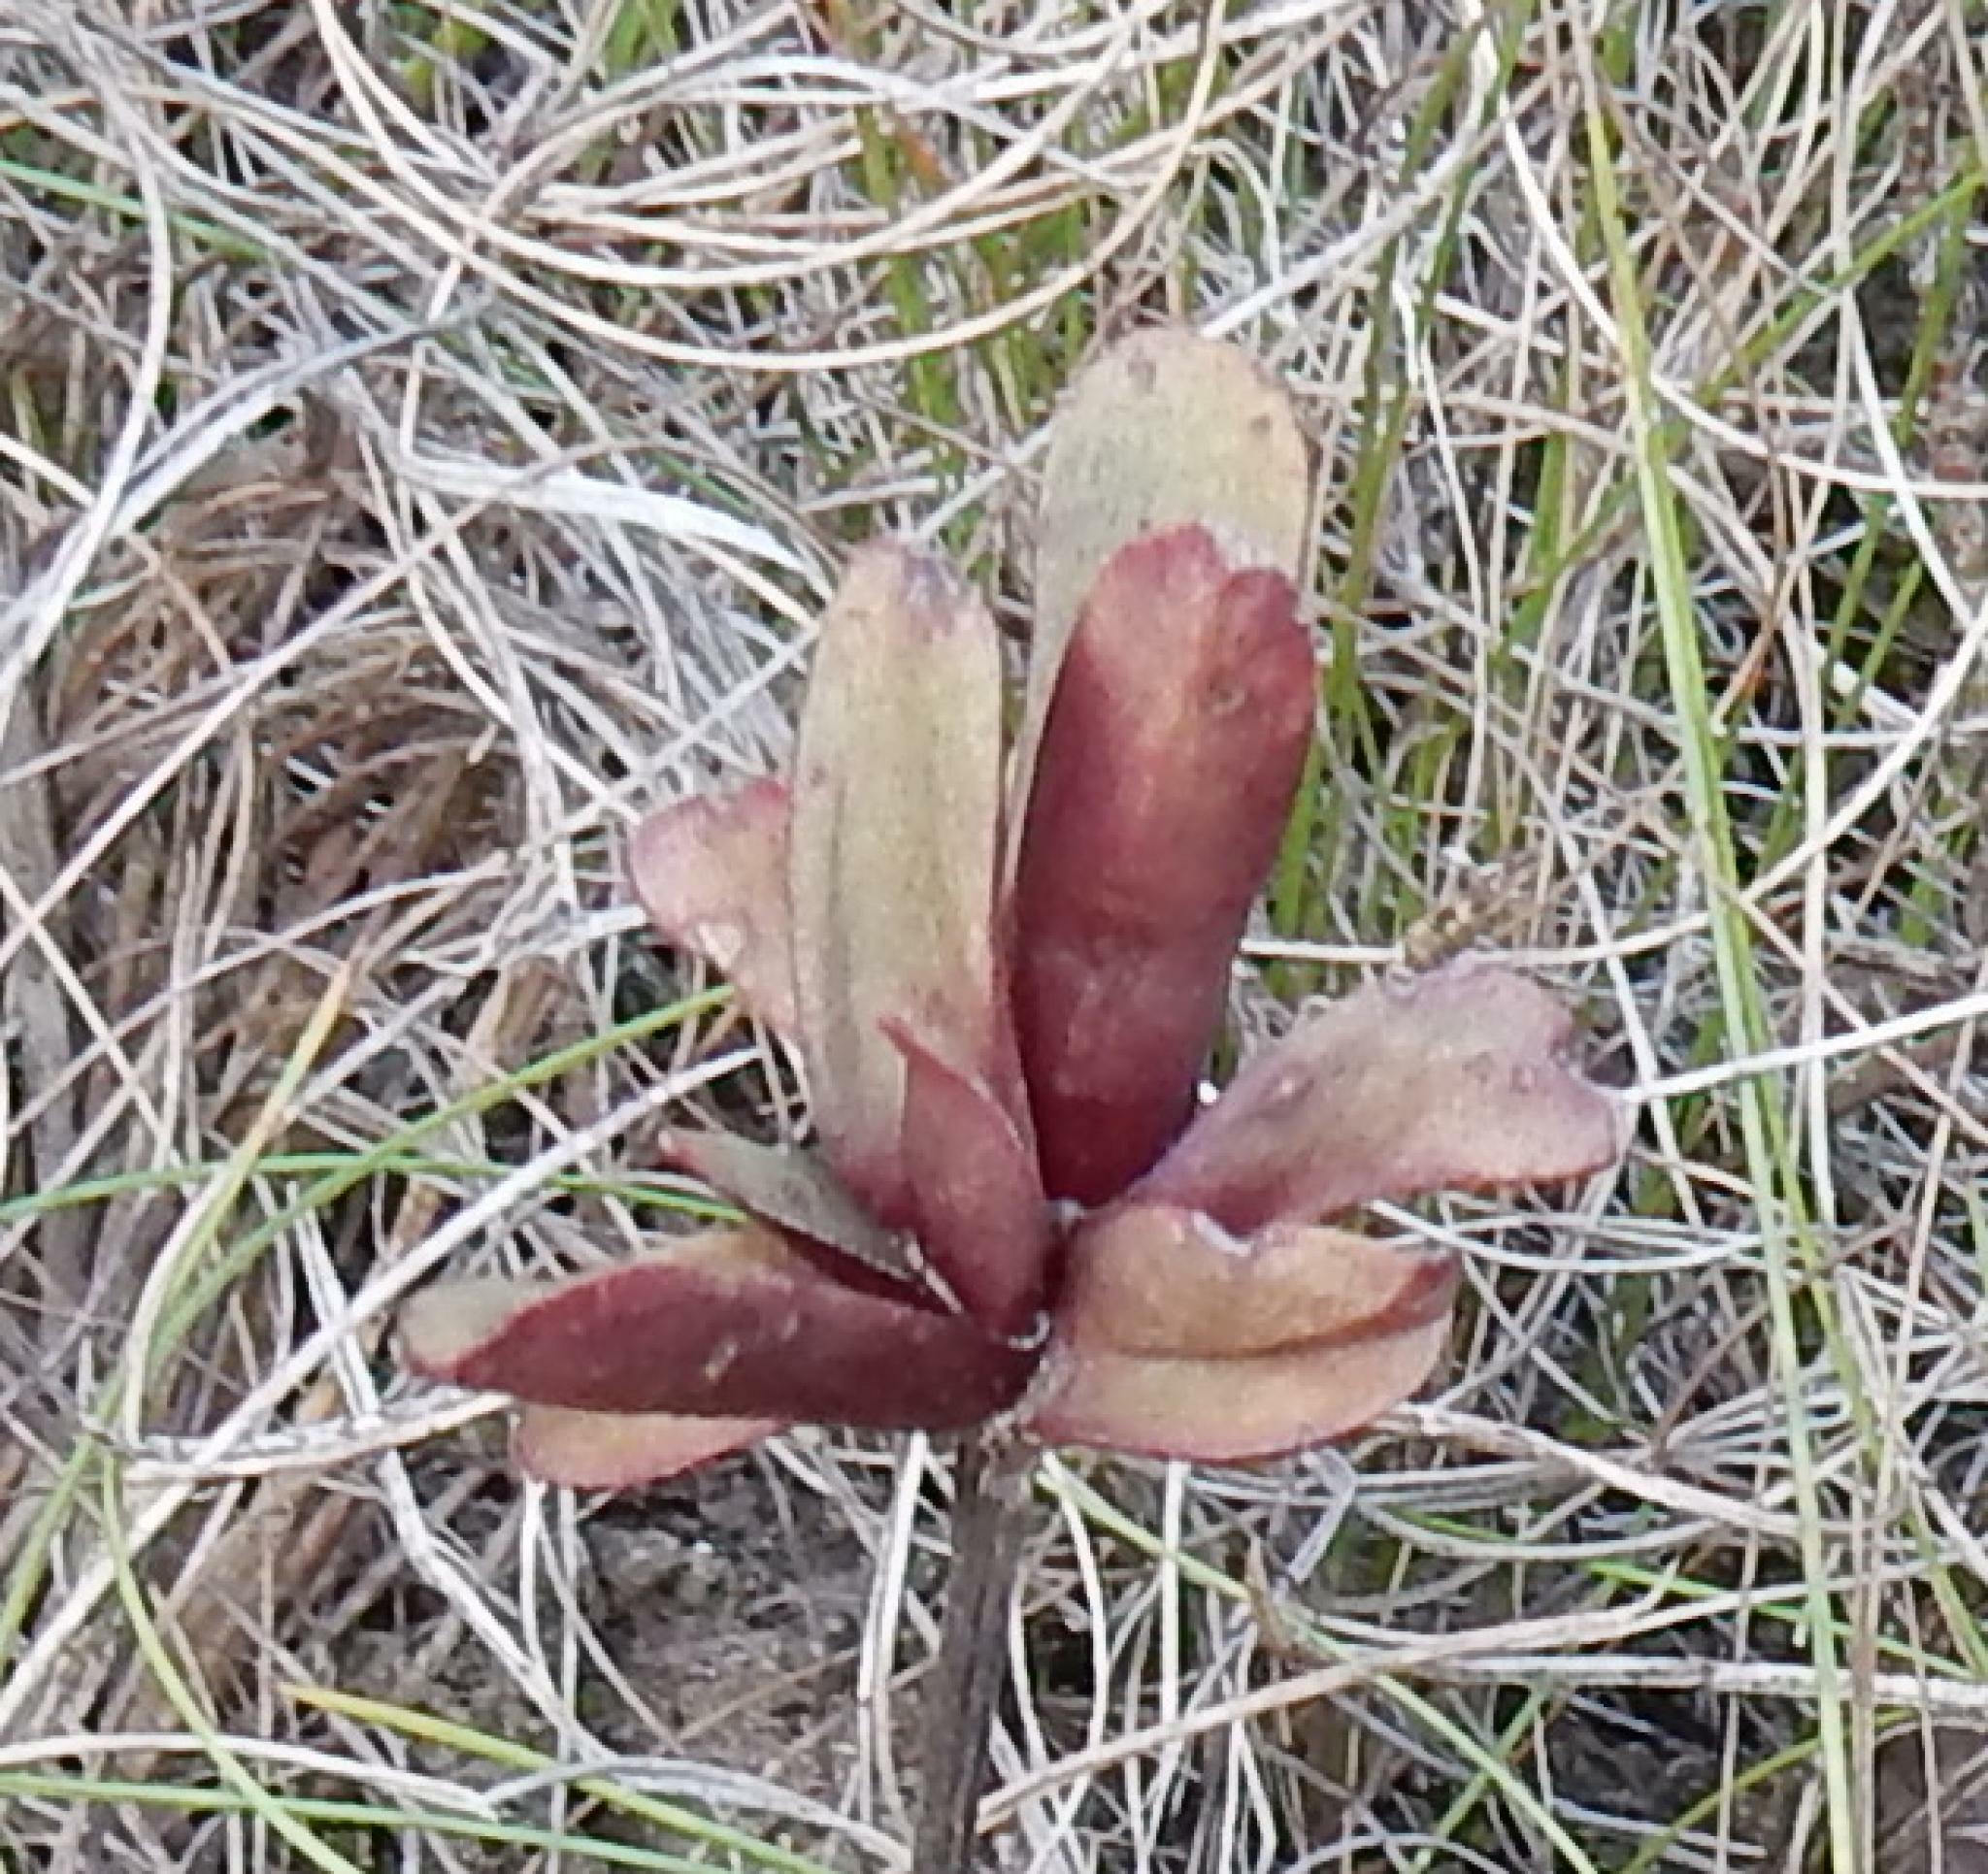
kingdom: Plantae
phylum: Tracheophyta
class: Magnoliopsida
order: Saxifragales
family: Crassulaceae
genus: Crassula
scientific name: Crassula nudicaulis
